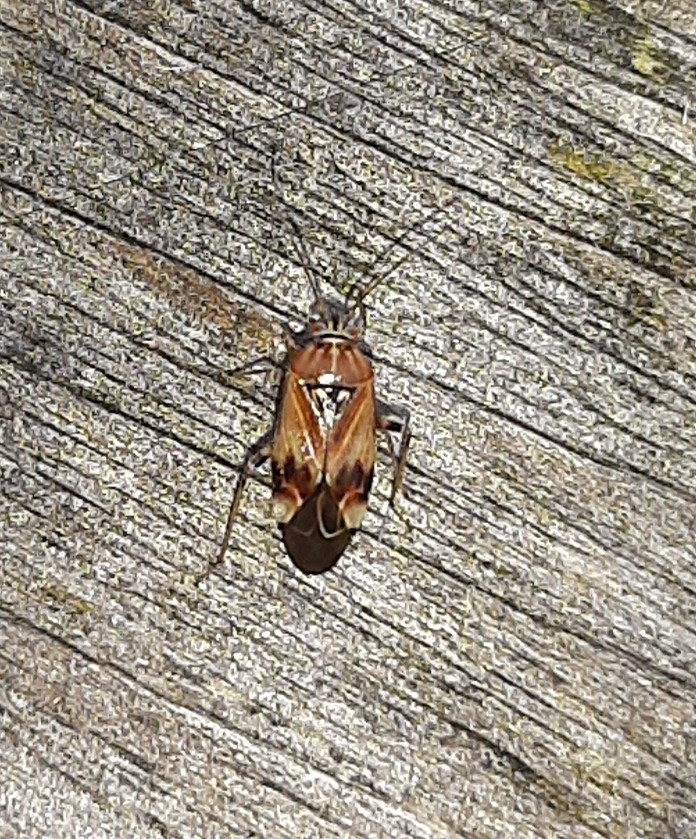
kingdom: Animalia
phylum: Arthropoda
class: Insecta
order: Hemiptera
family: Miridae
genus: Lygus
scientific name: Lygus pratensis
